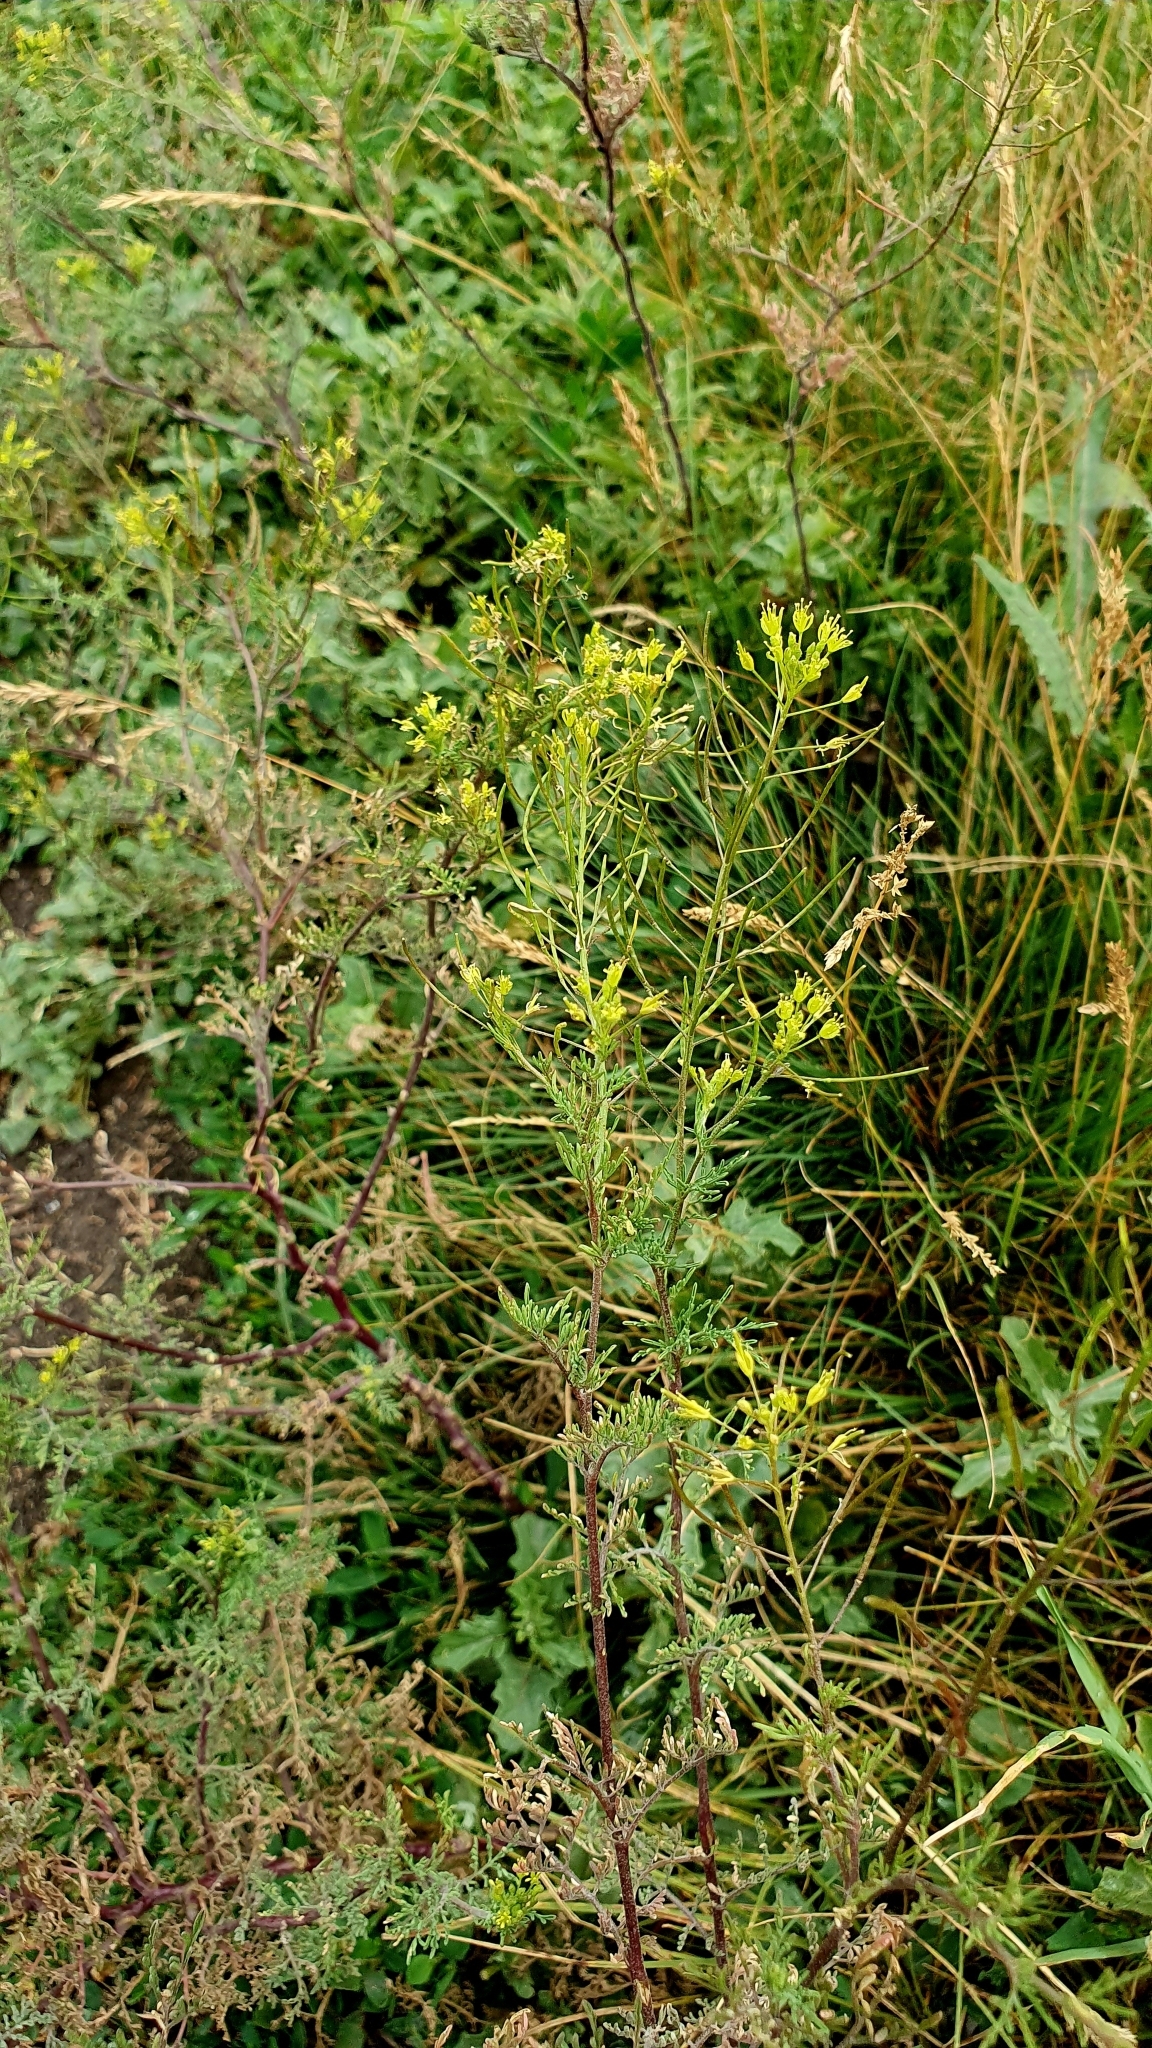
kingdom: Plantae
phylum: Tracheophyta
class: Magnoliopsida
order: Brassicales
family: Brassicaceae
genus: Descurainia
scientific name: Descurainia sophia
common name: Flixweed
